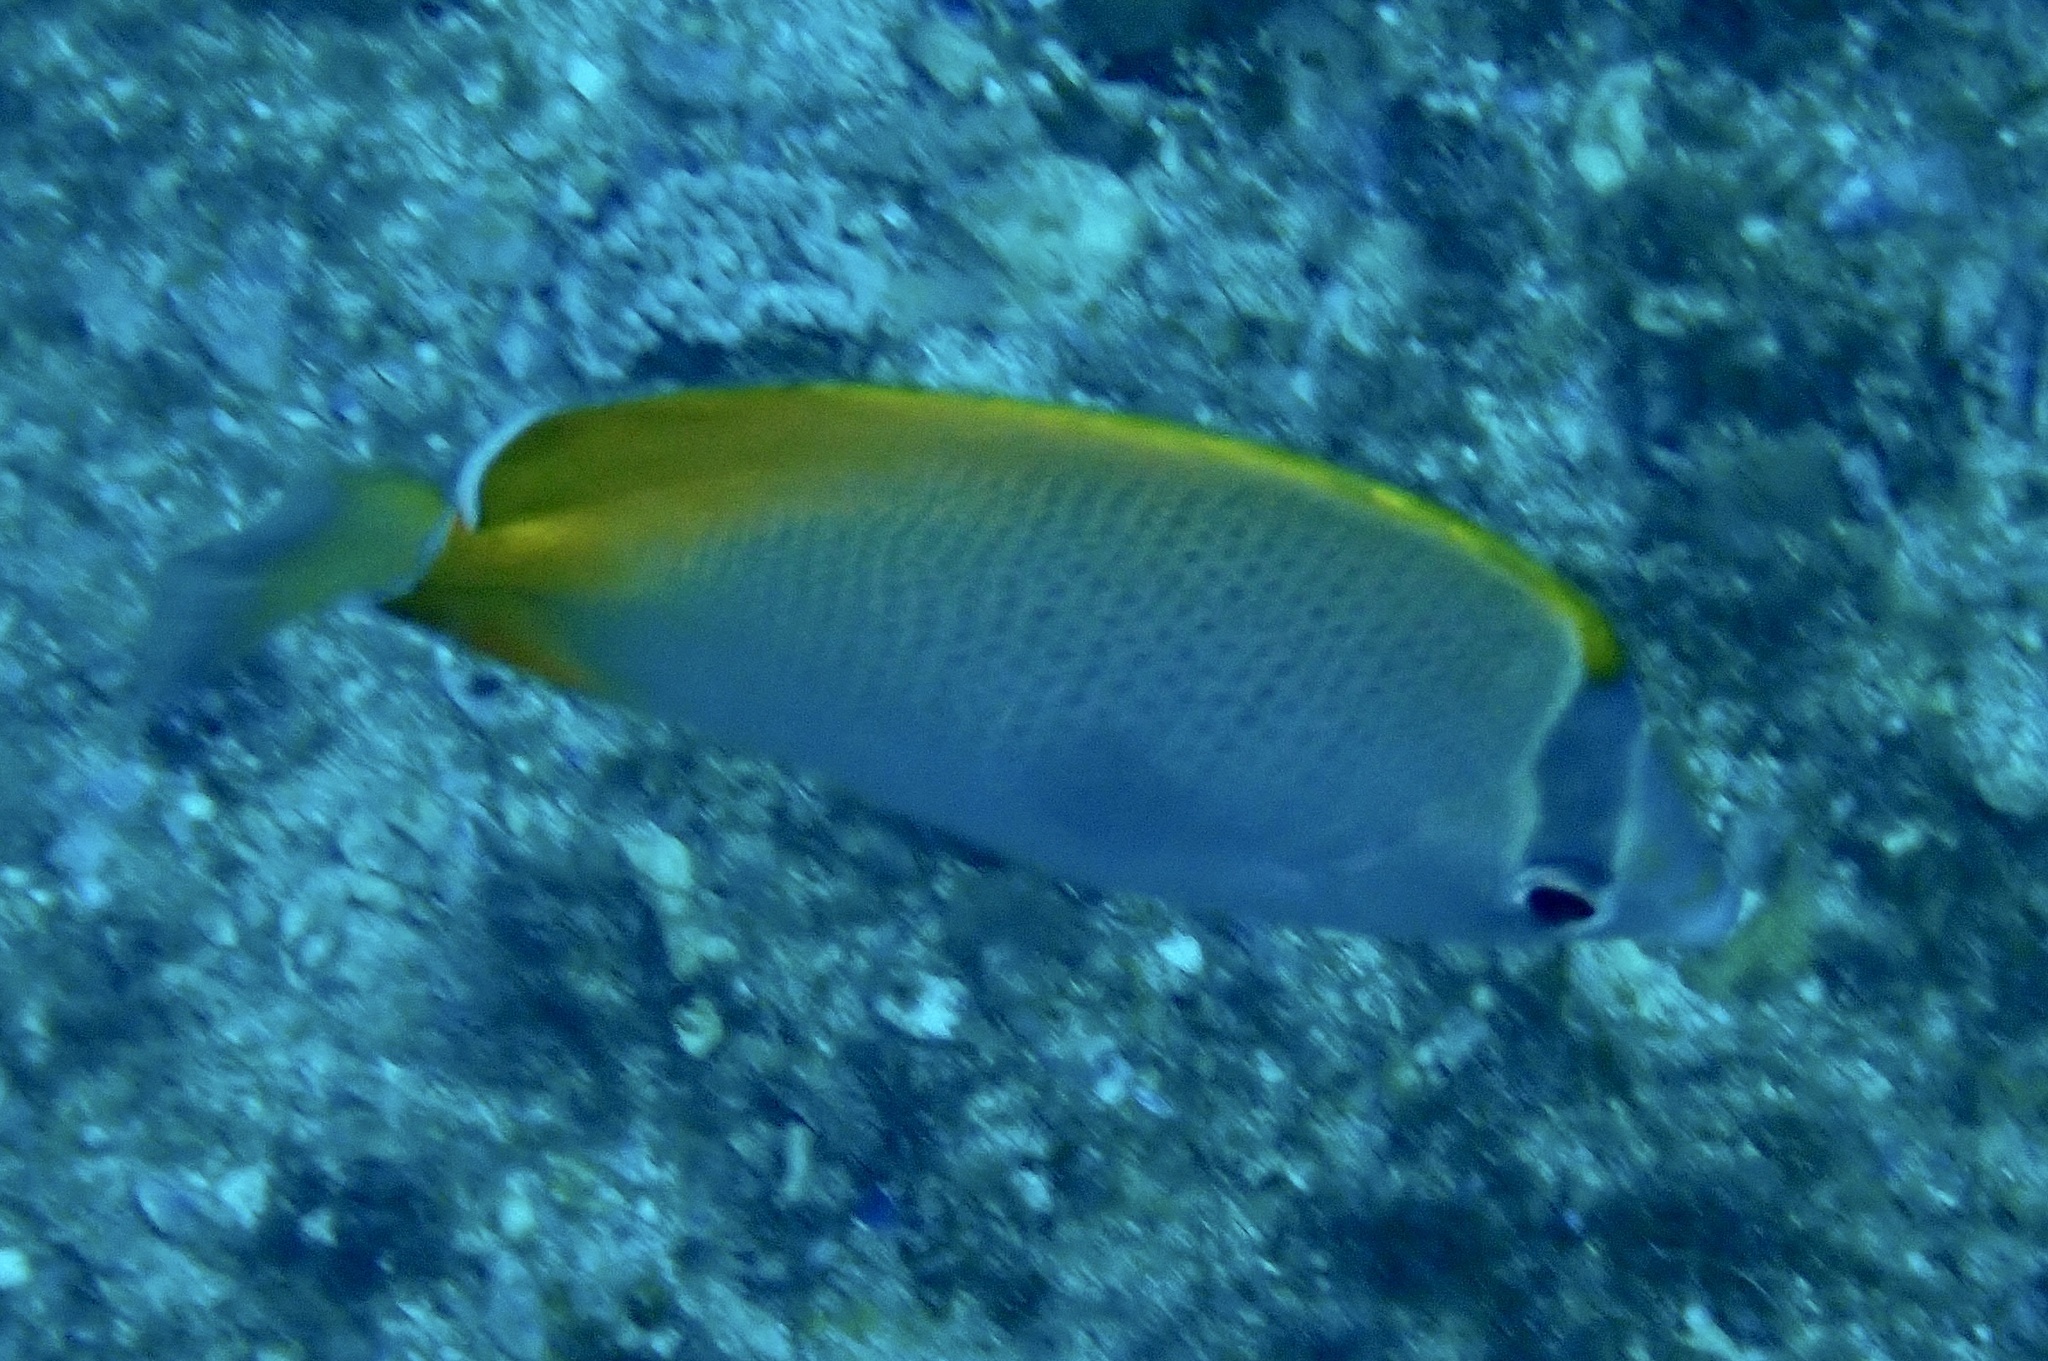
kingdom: Animalia
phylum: Chordata
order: Perciformes
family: Chaetodontidae
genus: Chaetodon
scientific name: Chaetodon guentheri
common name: Gunther's butterflyfish
